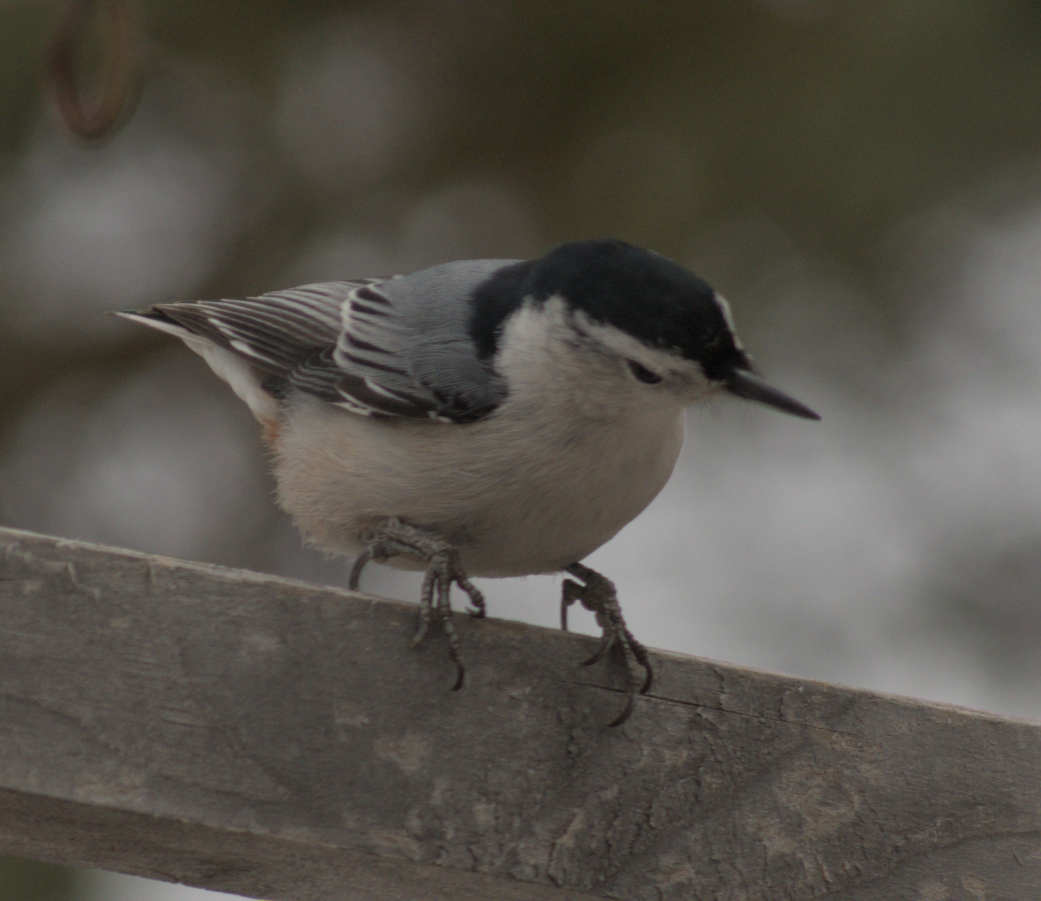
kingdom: Animalia
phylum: Chordata
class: Aves
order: Passeriformes
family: Sittidae
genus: Sitta
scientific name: Sitta carolinensis
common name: White-breasted nuthatch
